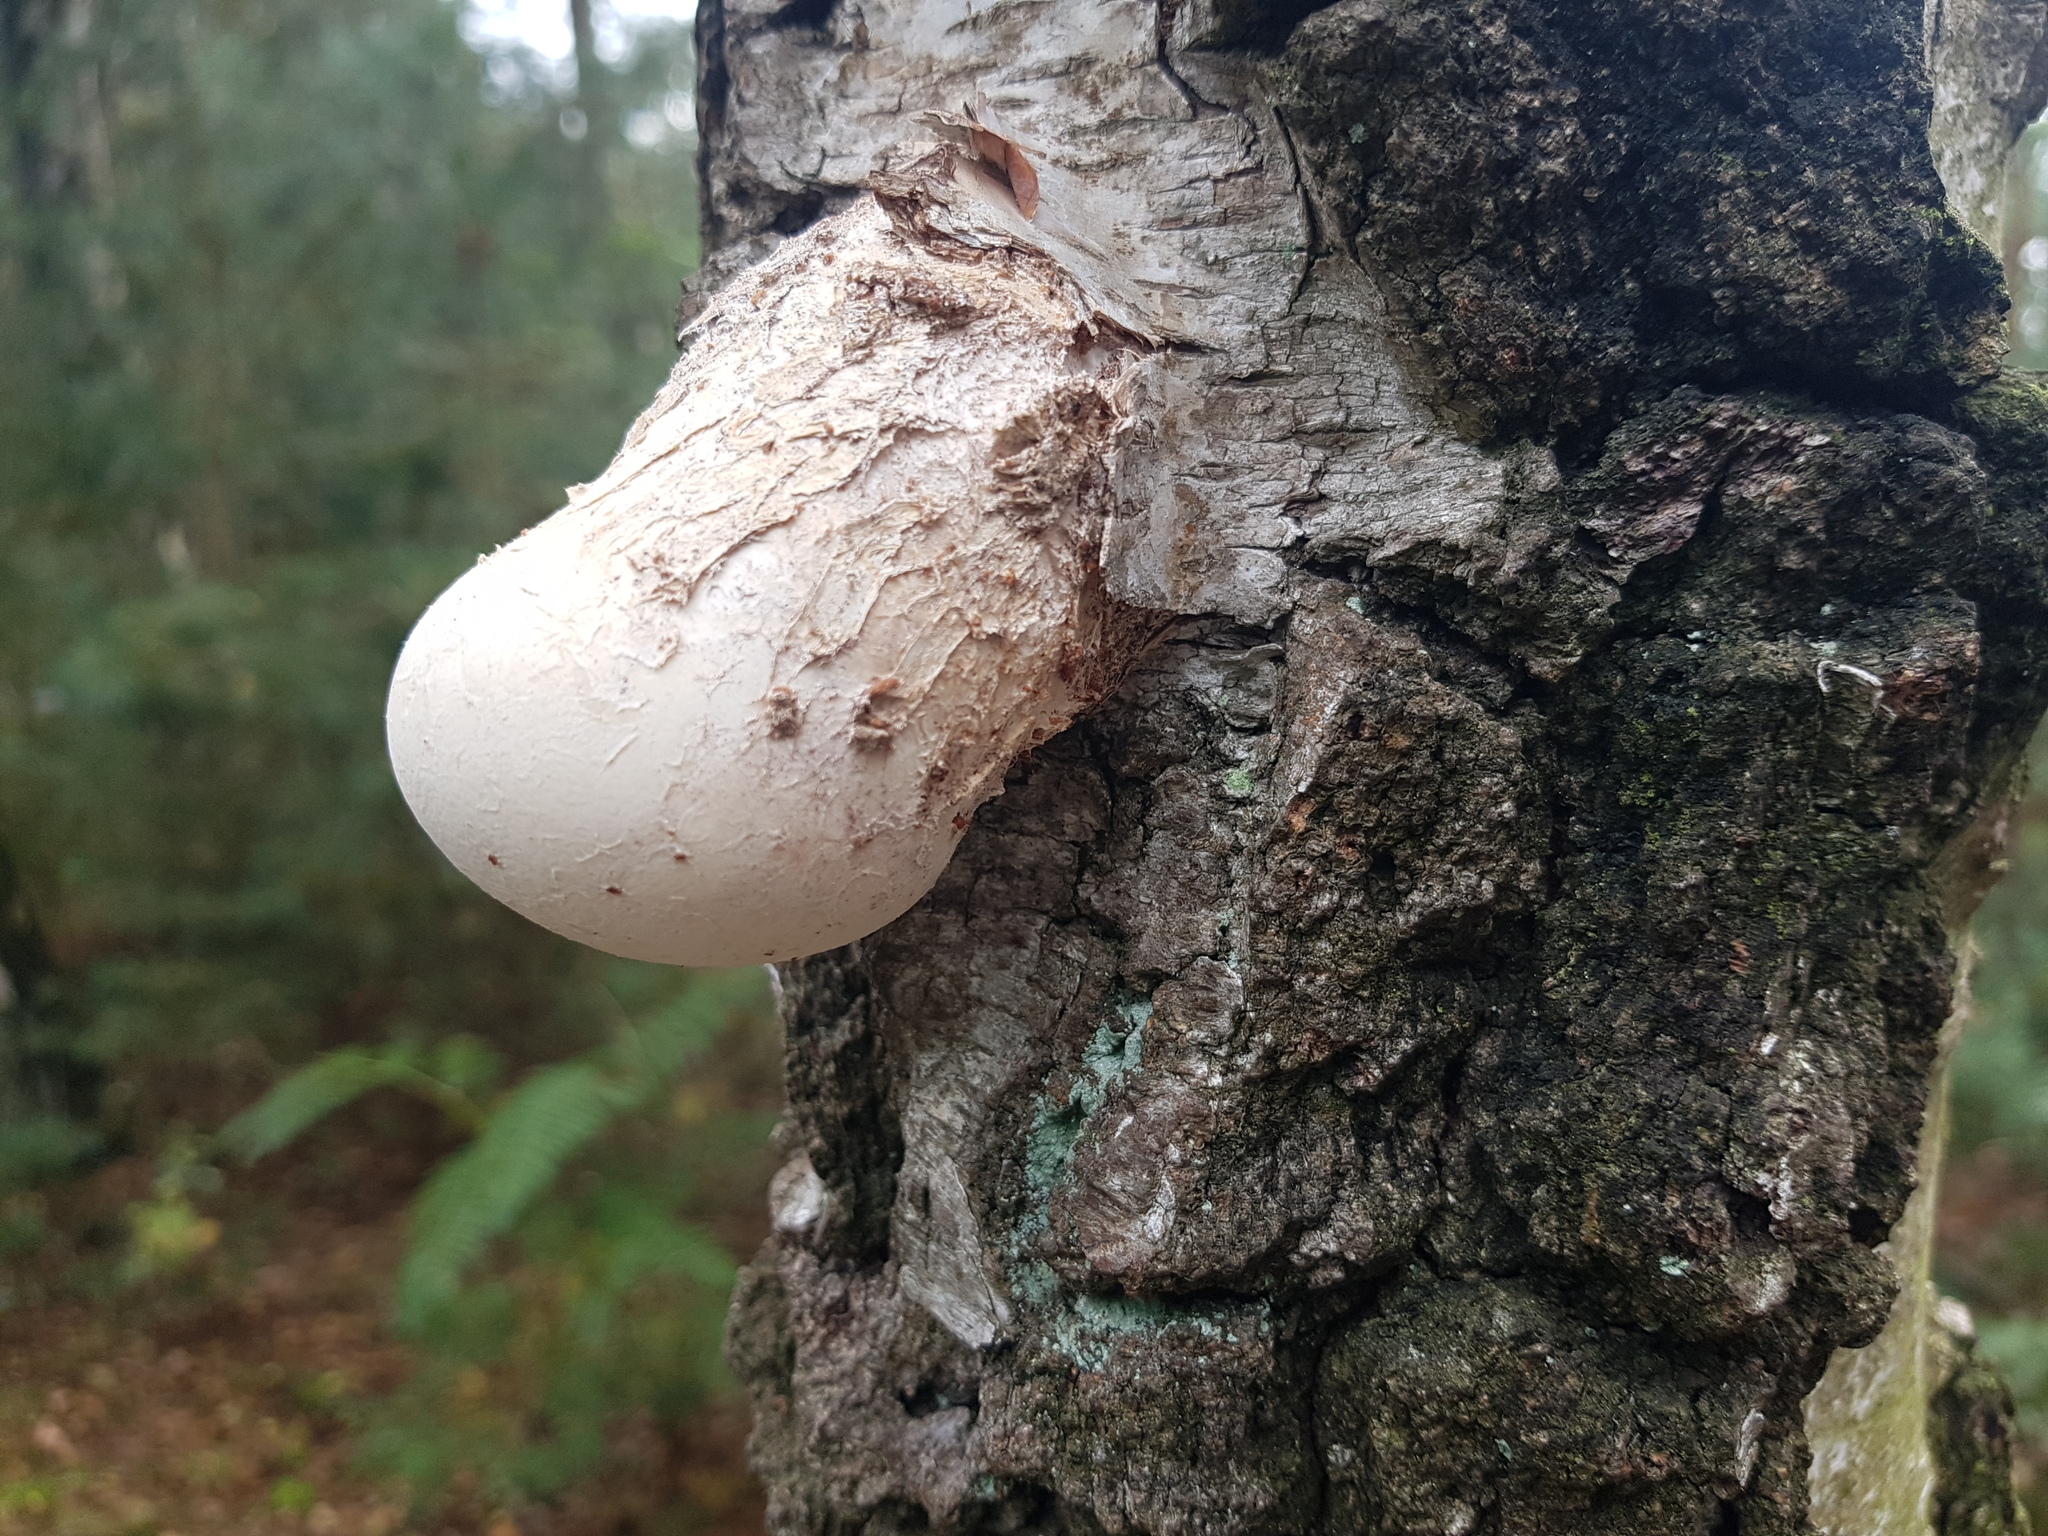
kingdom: Fungi
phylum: Basidiomycota
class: Agaricomycetes
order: Polyporales
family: Fomitopsidaceae
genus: Fomitopsis
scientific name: Fomitopsis betulina
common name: Birch polypore
